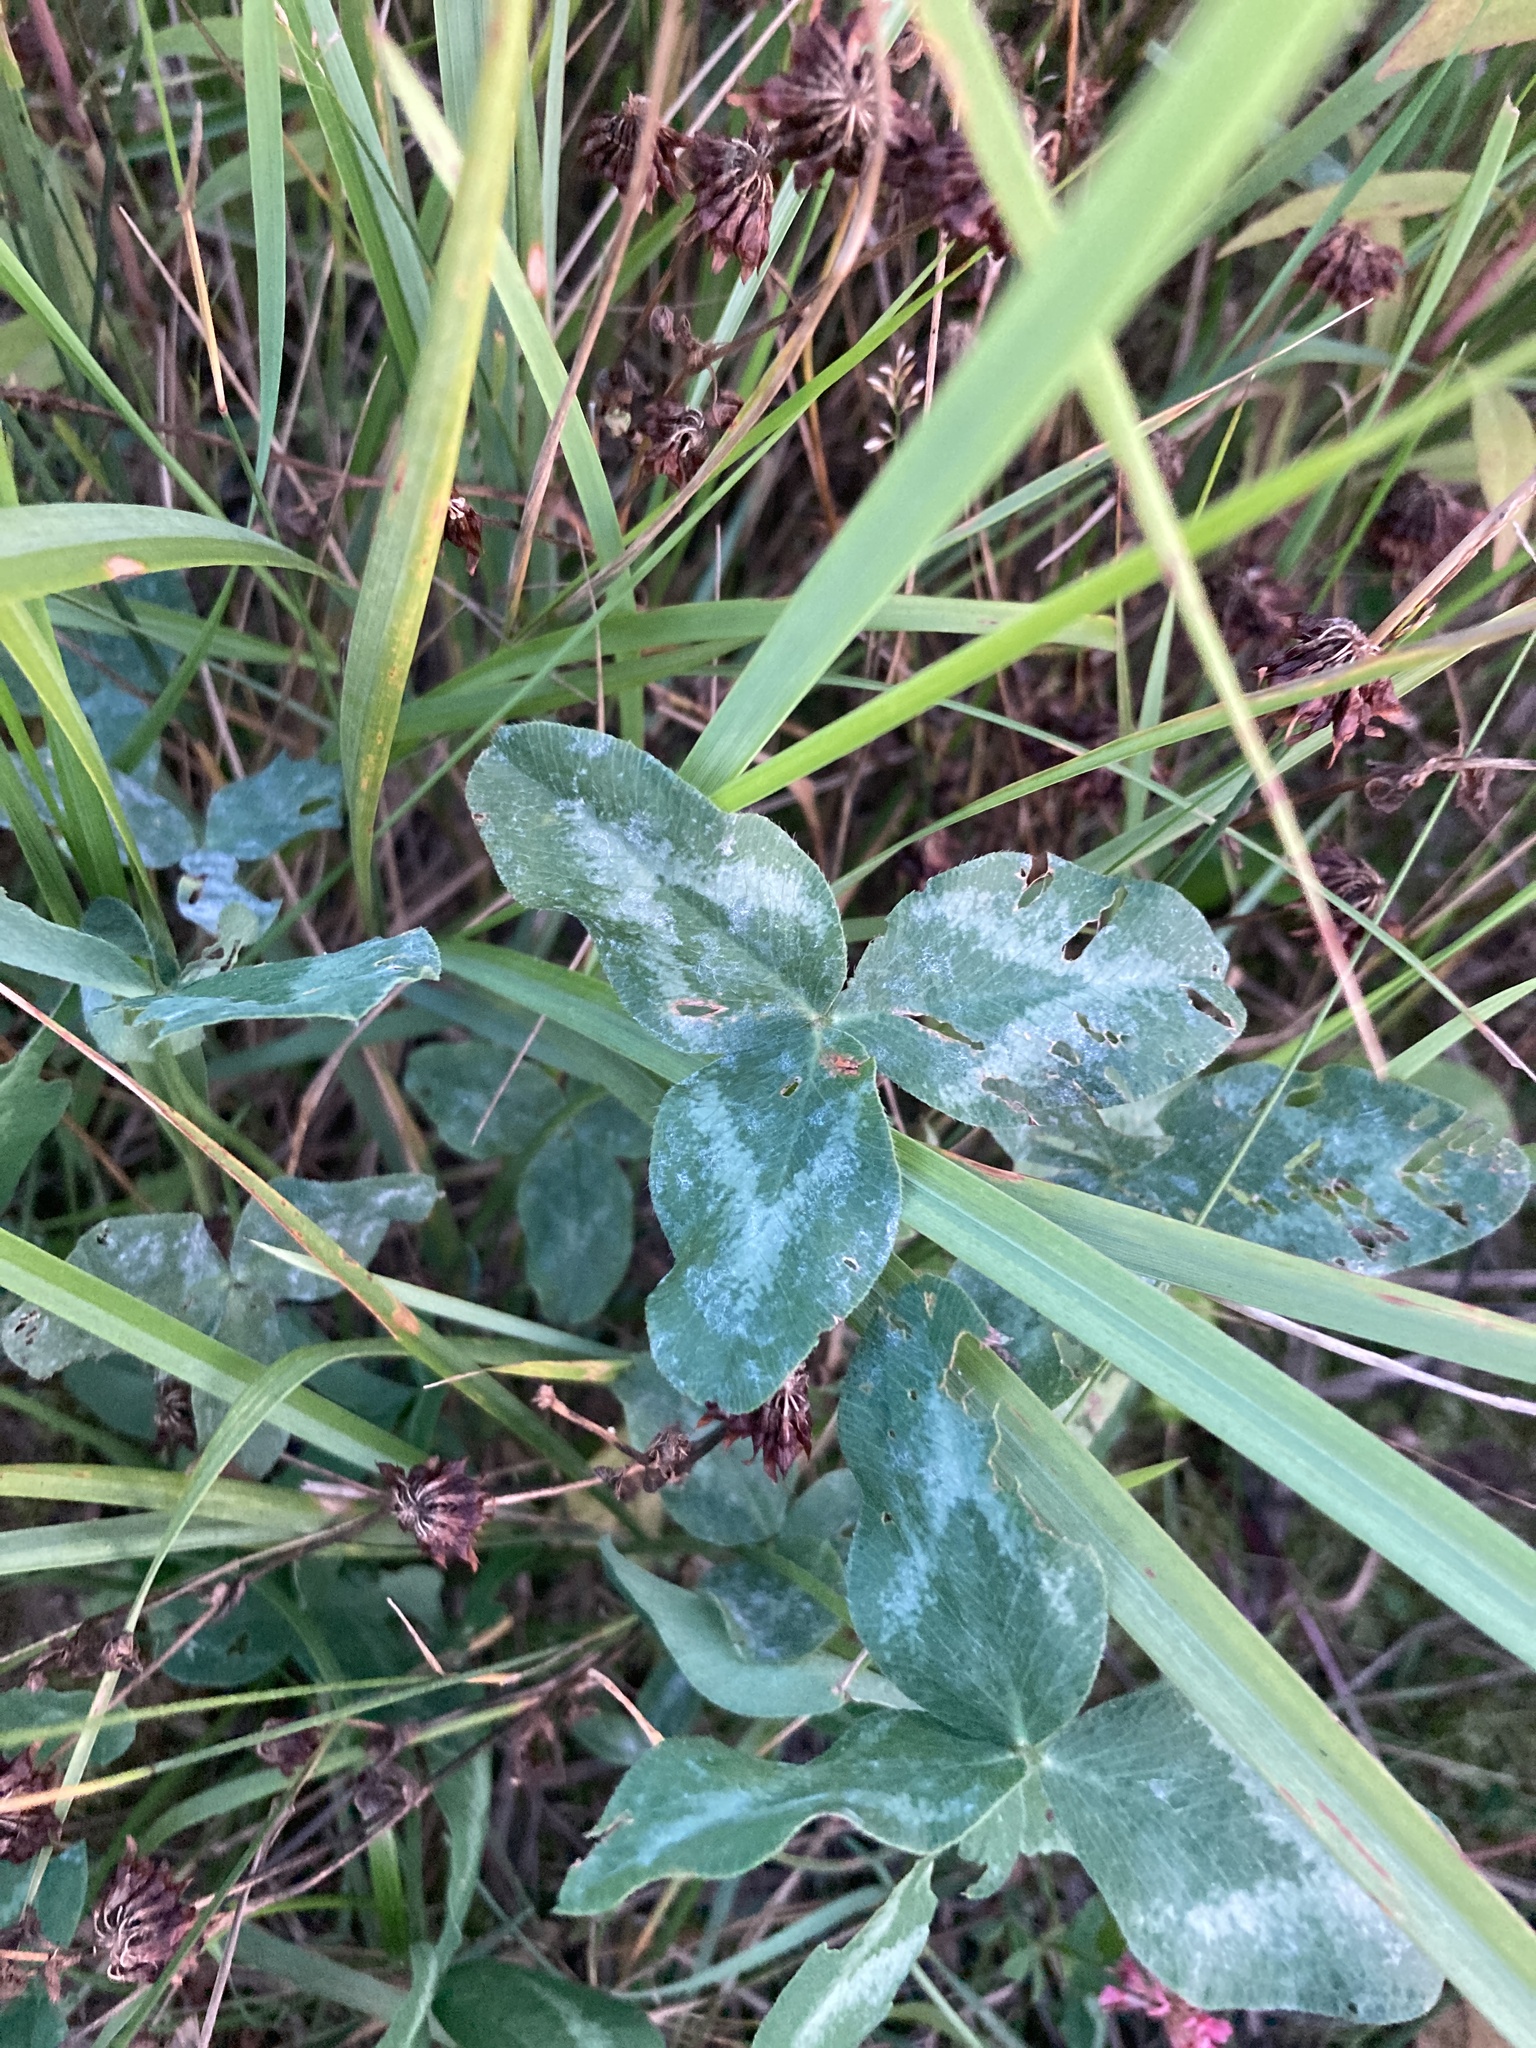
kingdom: Plantae
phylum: Tracheophyta
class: Magnoliopsida
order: Fabales
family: Fabaceae
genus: Trifolium
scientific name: Trifolium pratense
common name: Red clover
